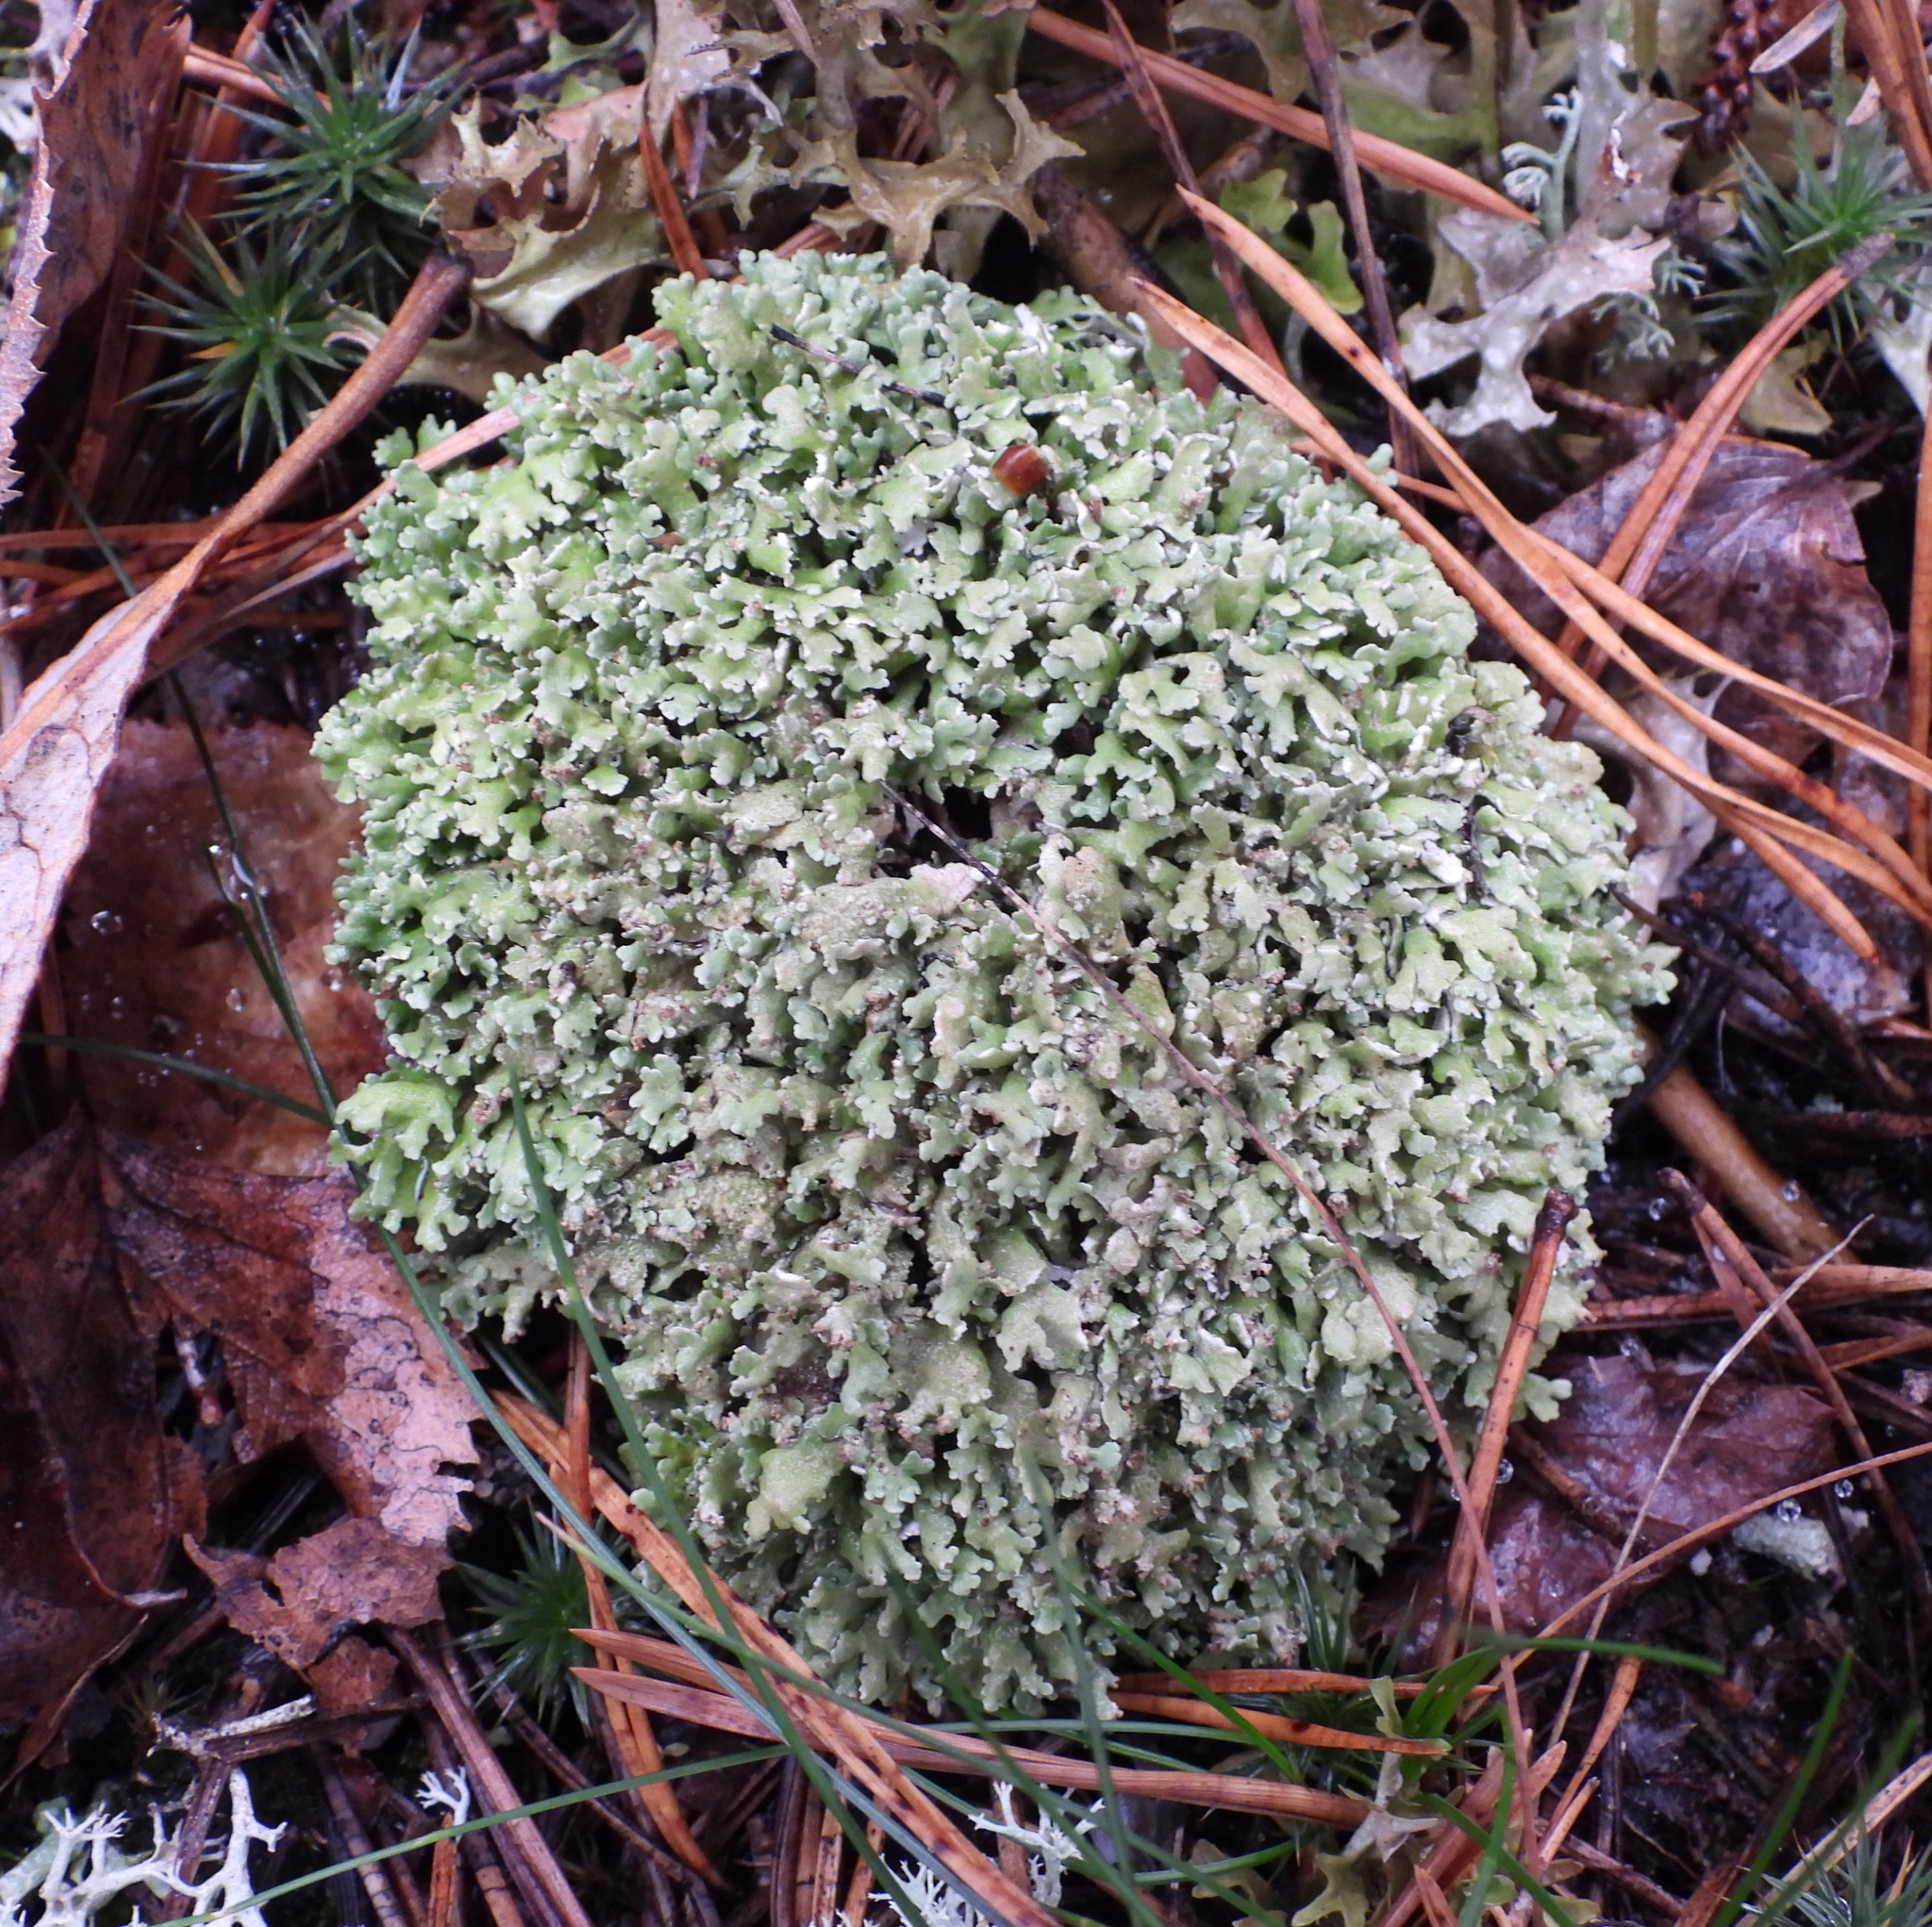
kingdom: Fungi
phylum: Ascomycota
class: Lecanoromycetes
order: Lecanorales
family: Cladoniaceae
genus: Cladonia
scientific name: Cladonia strepsilis
